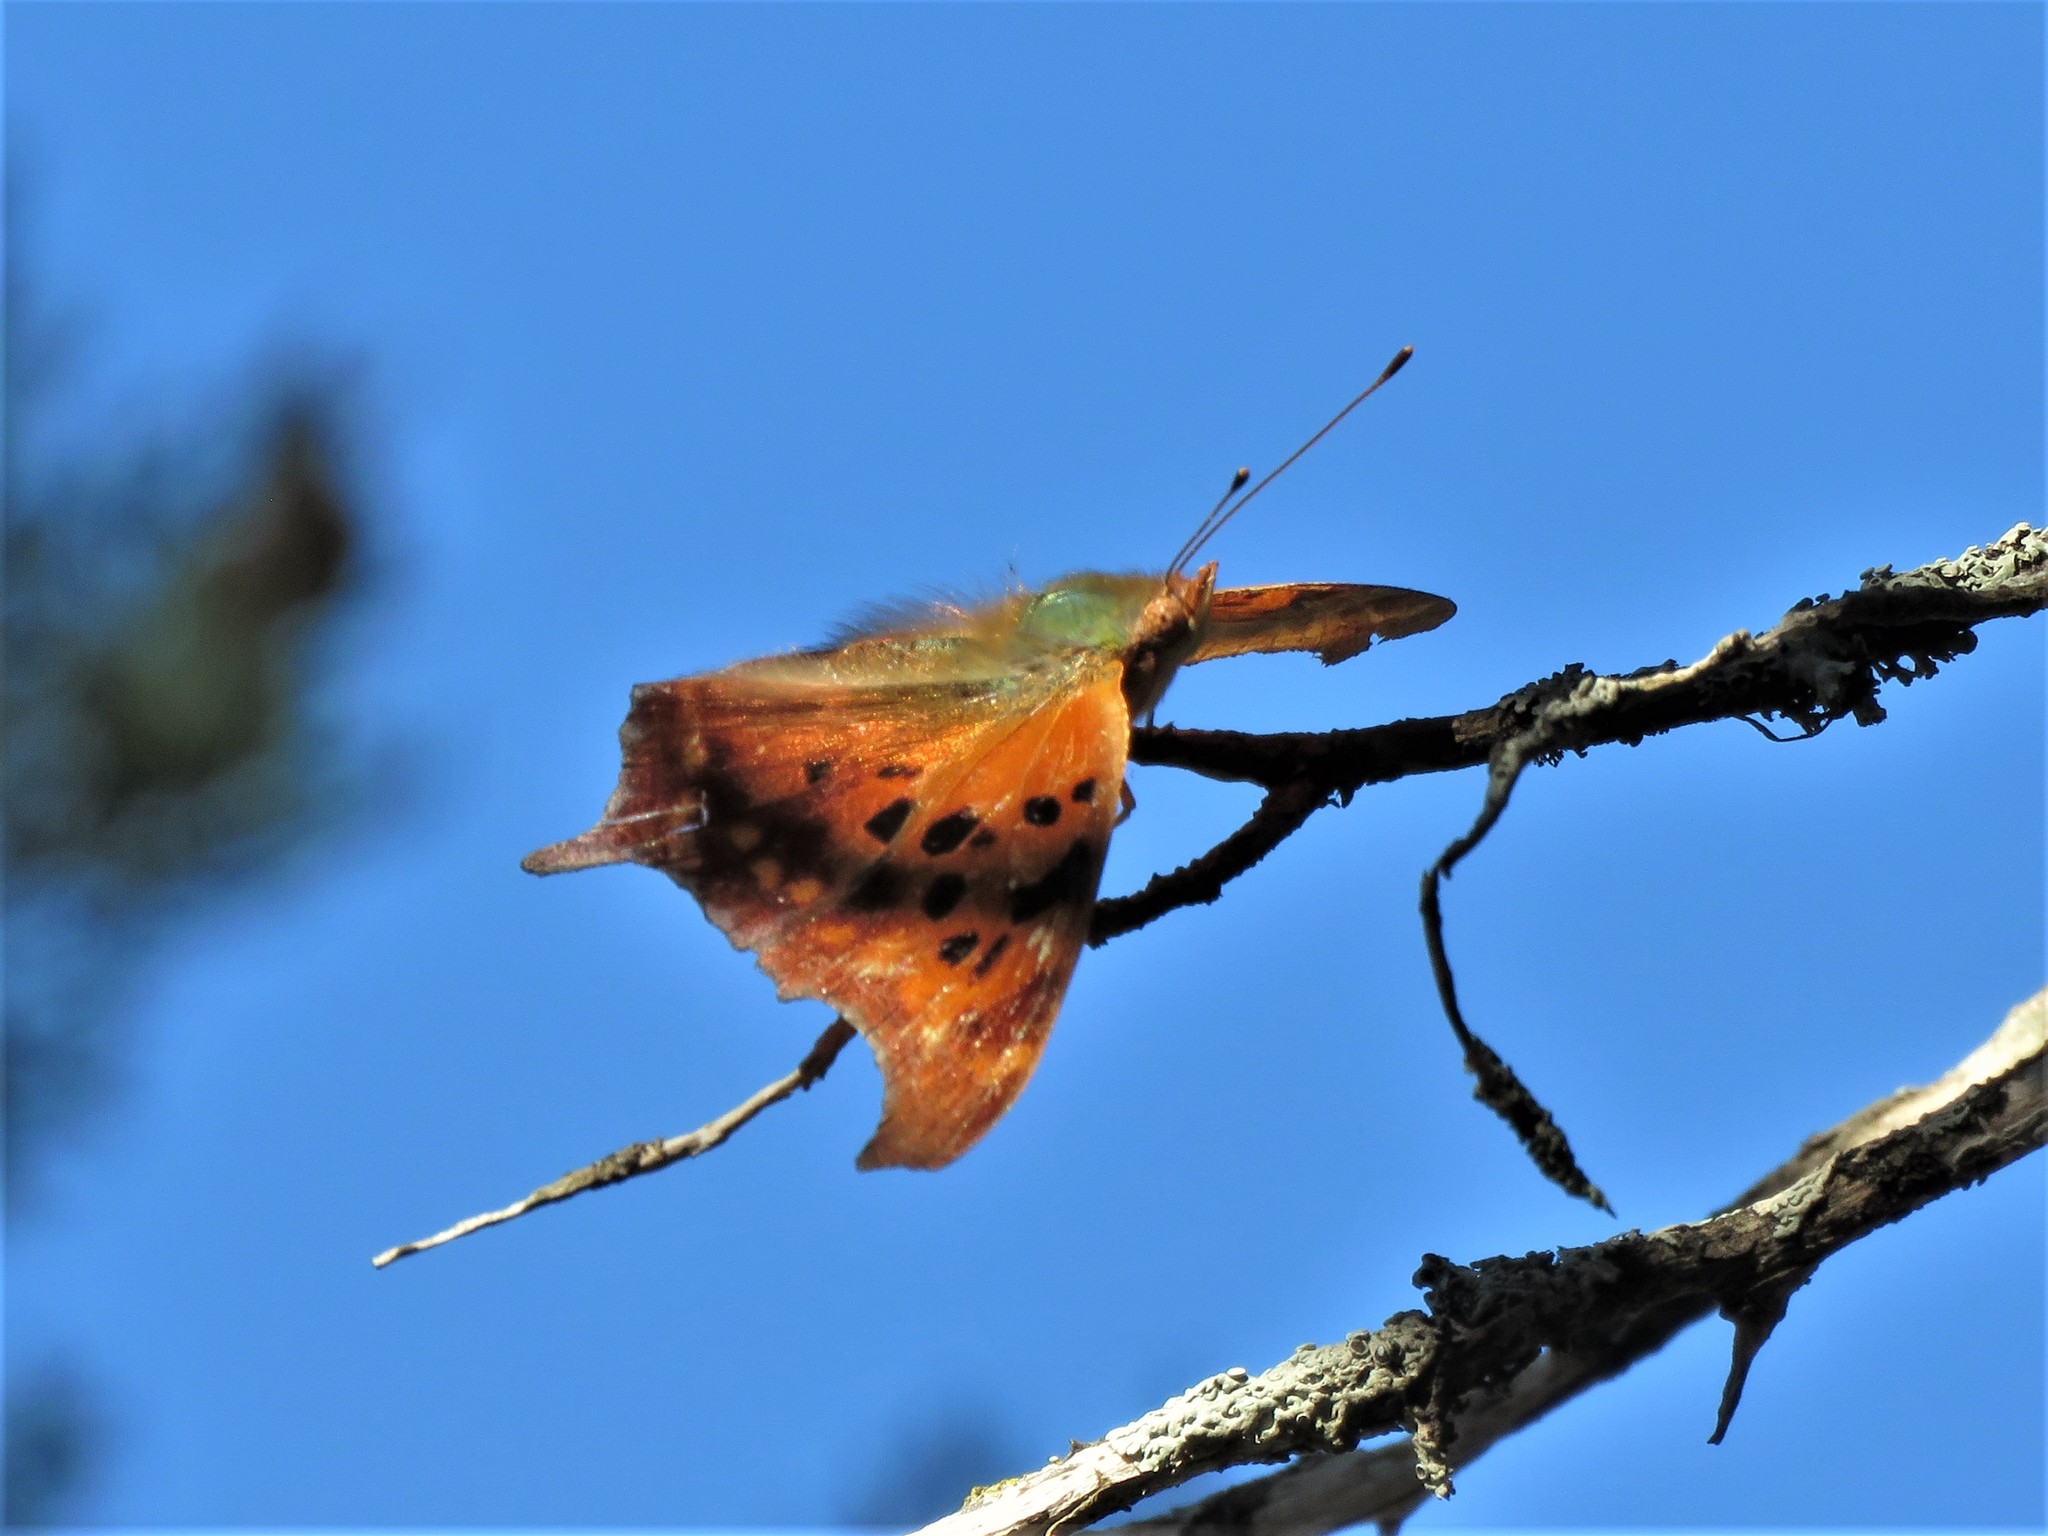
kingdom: Animalia
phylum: Arthropoda
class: Insecta
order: Lepidoptera
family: Nymphalidae
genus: Polygonia
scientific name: Polygonia interrogationis
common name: Question mark
